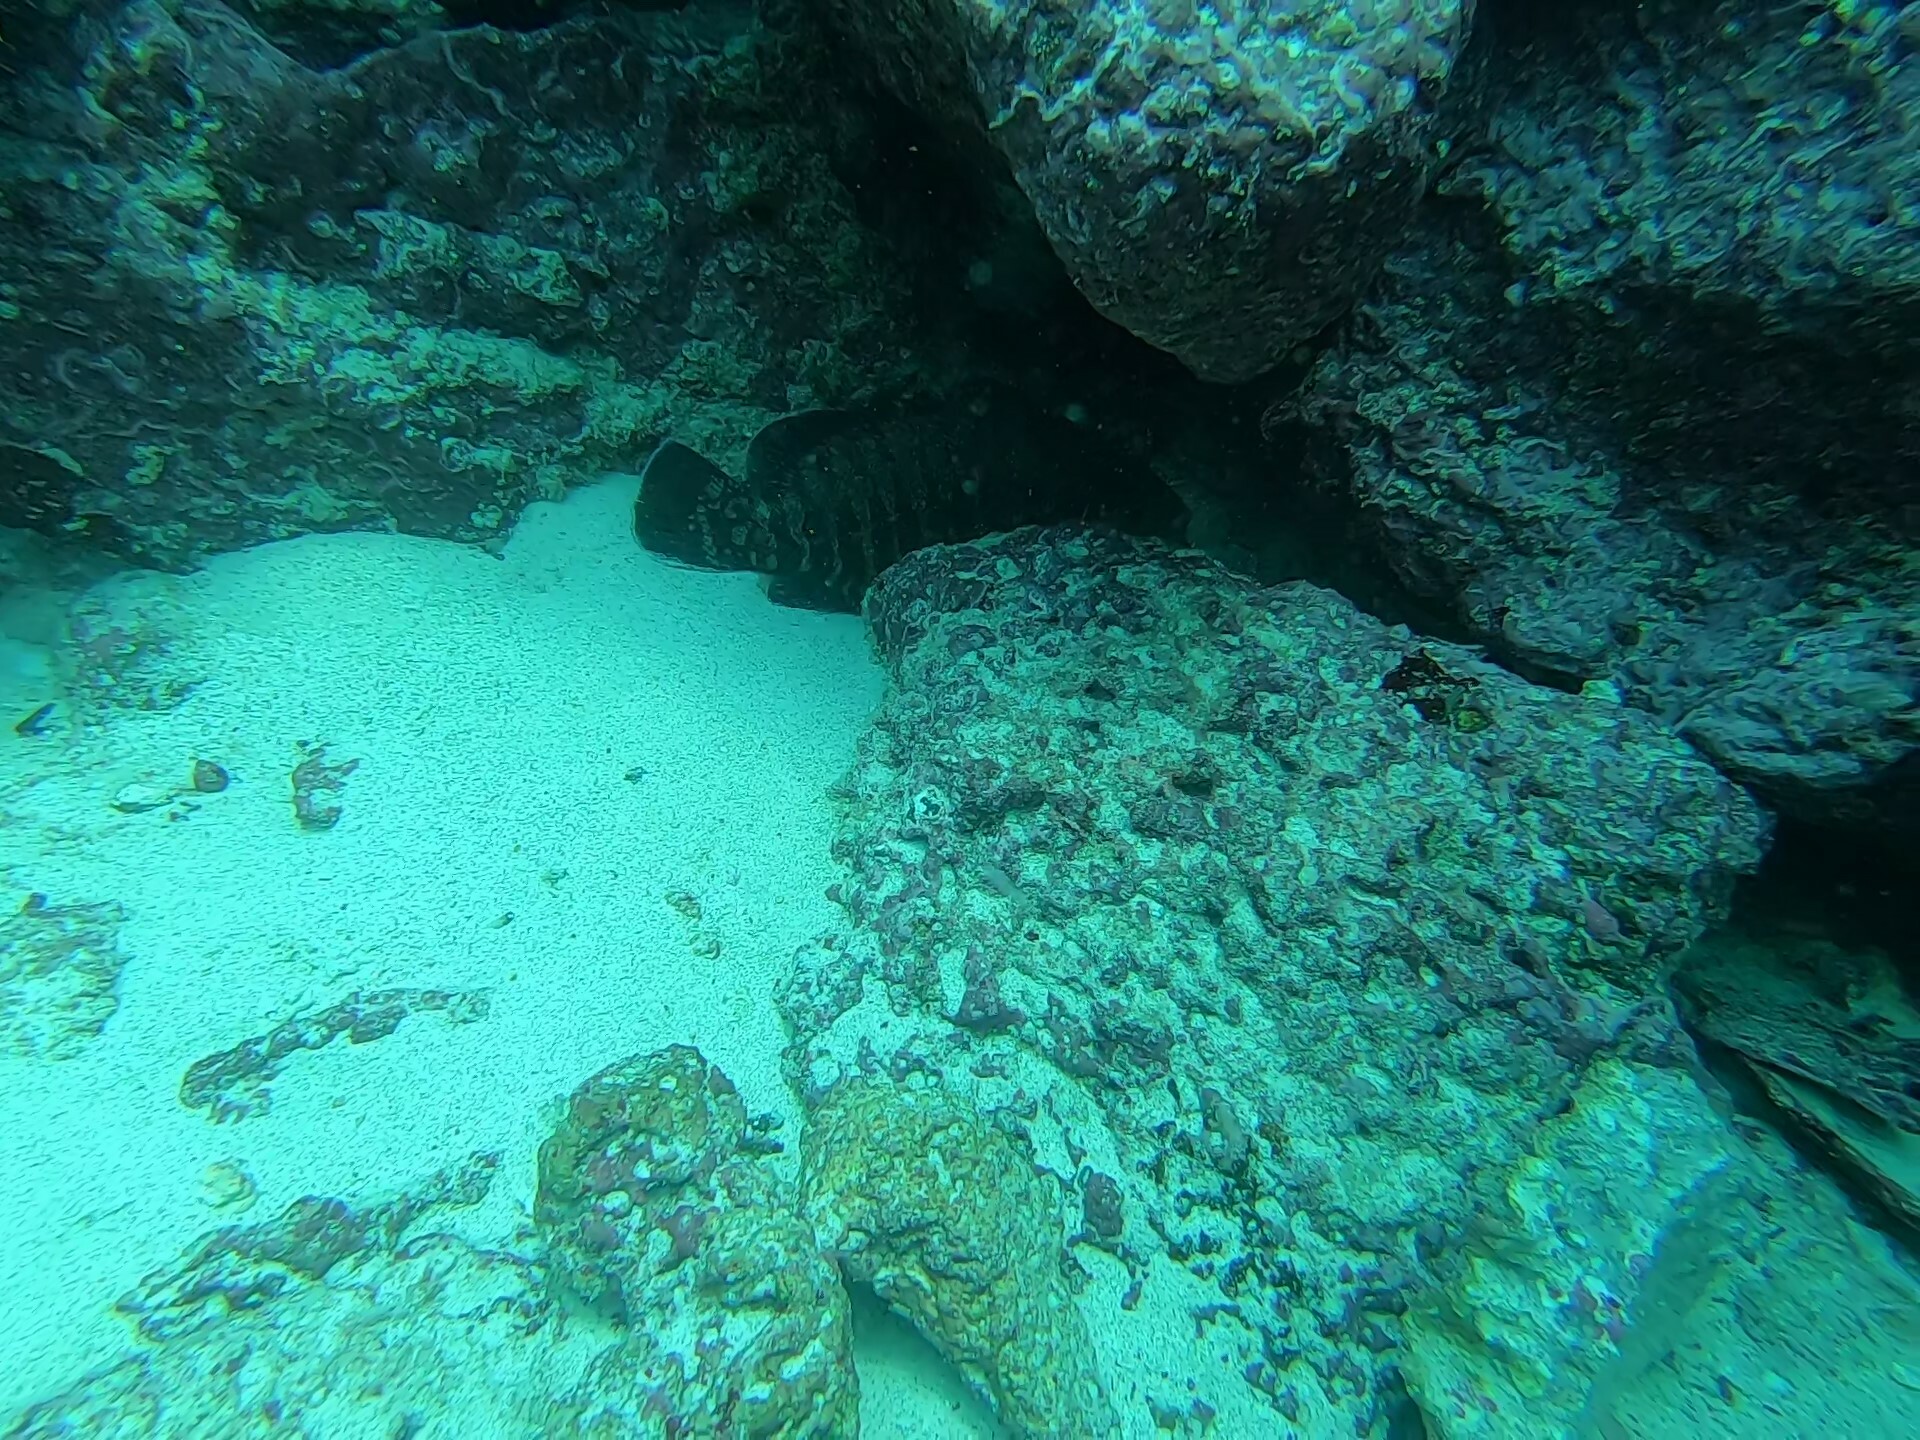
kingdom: Animalia
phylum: Chordata
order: Perciformes
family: Serranidae
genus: Cephalopholis
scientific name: Cephalopholis panamensis
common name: Pacific graysby
